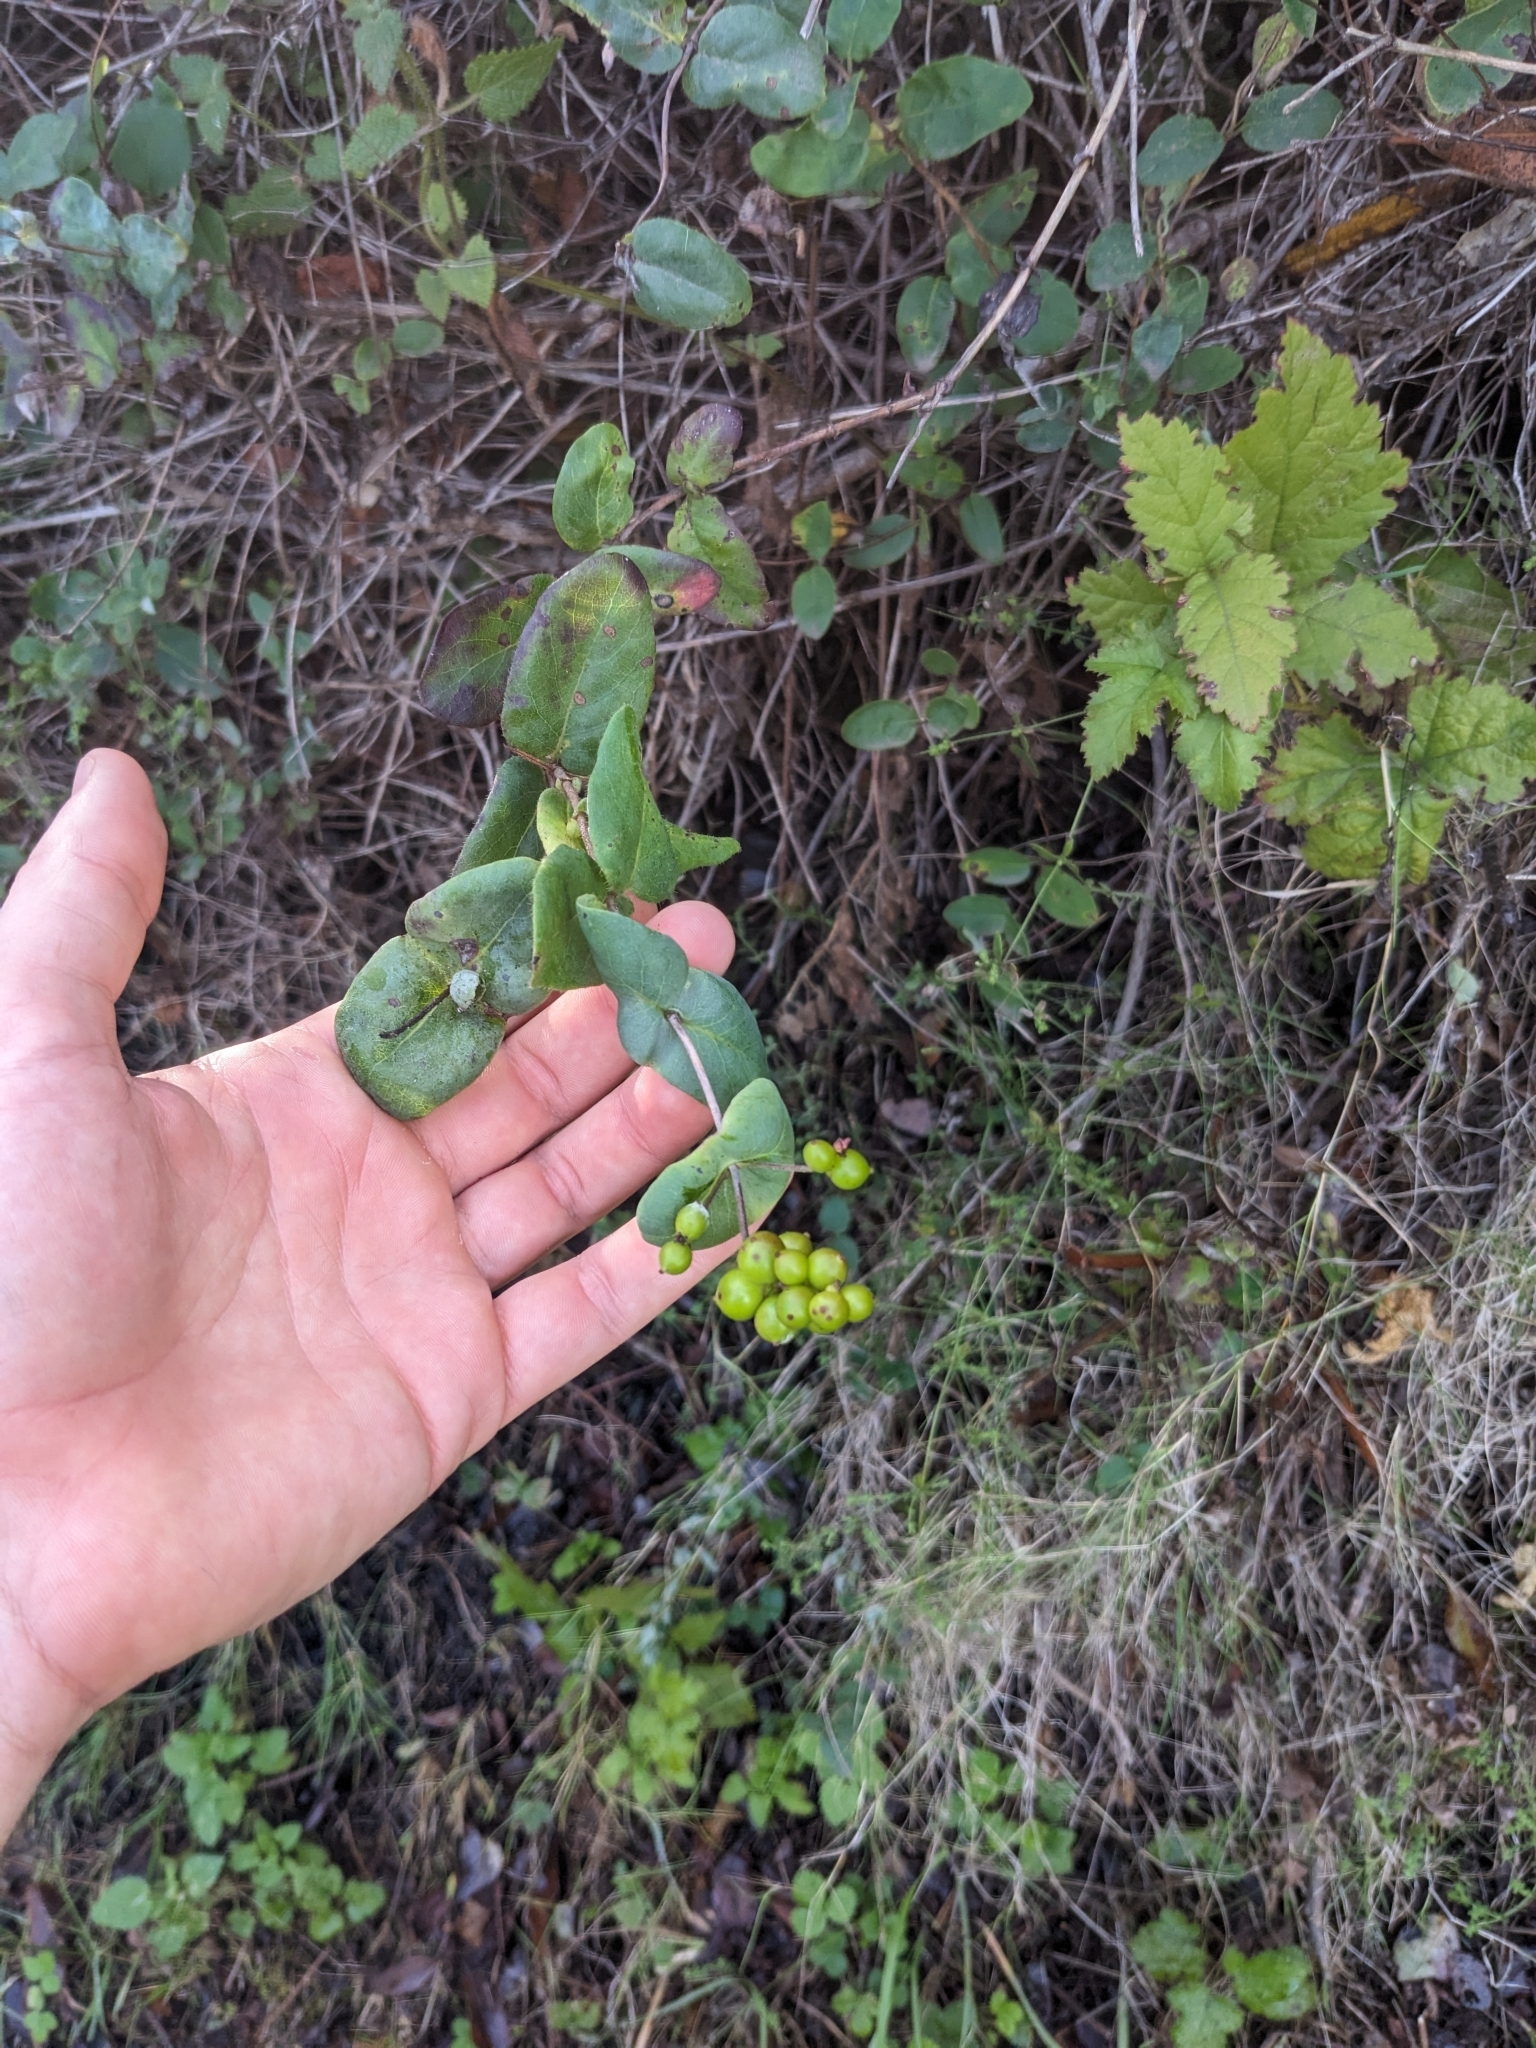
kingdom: Plantae
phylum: Tracheophyta
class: Magnoliopsida
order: Dipsacales
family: Caprifoliaceae
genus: Lonicera
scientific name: Lonicera hispidula
